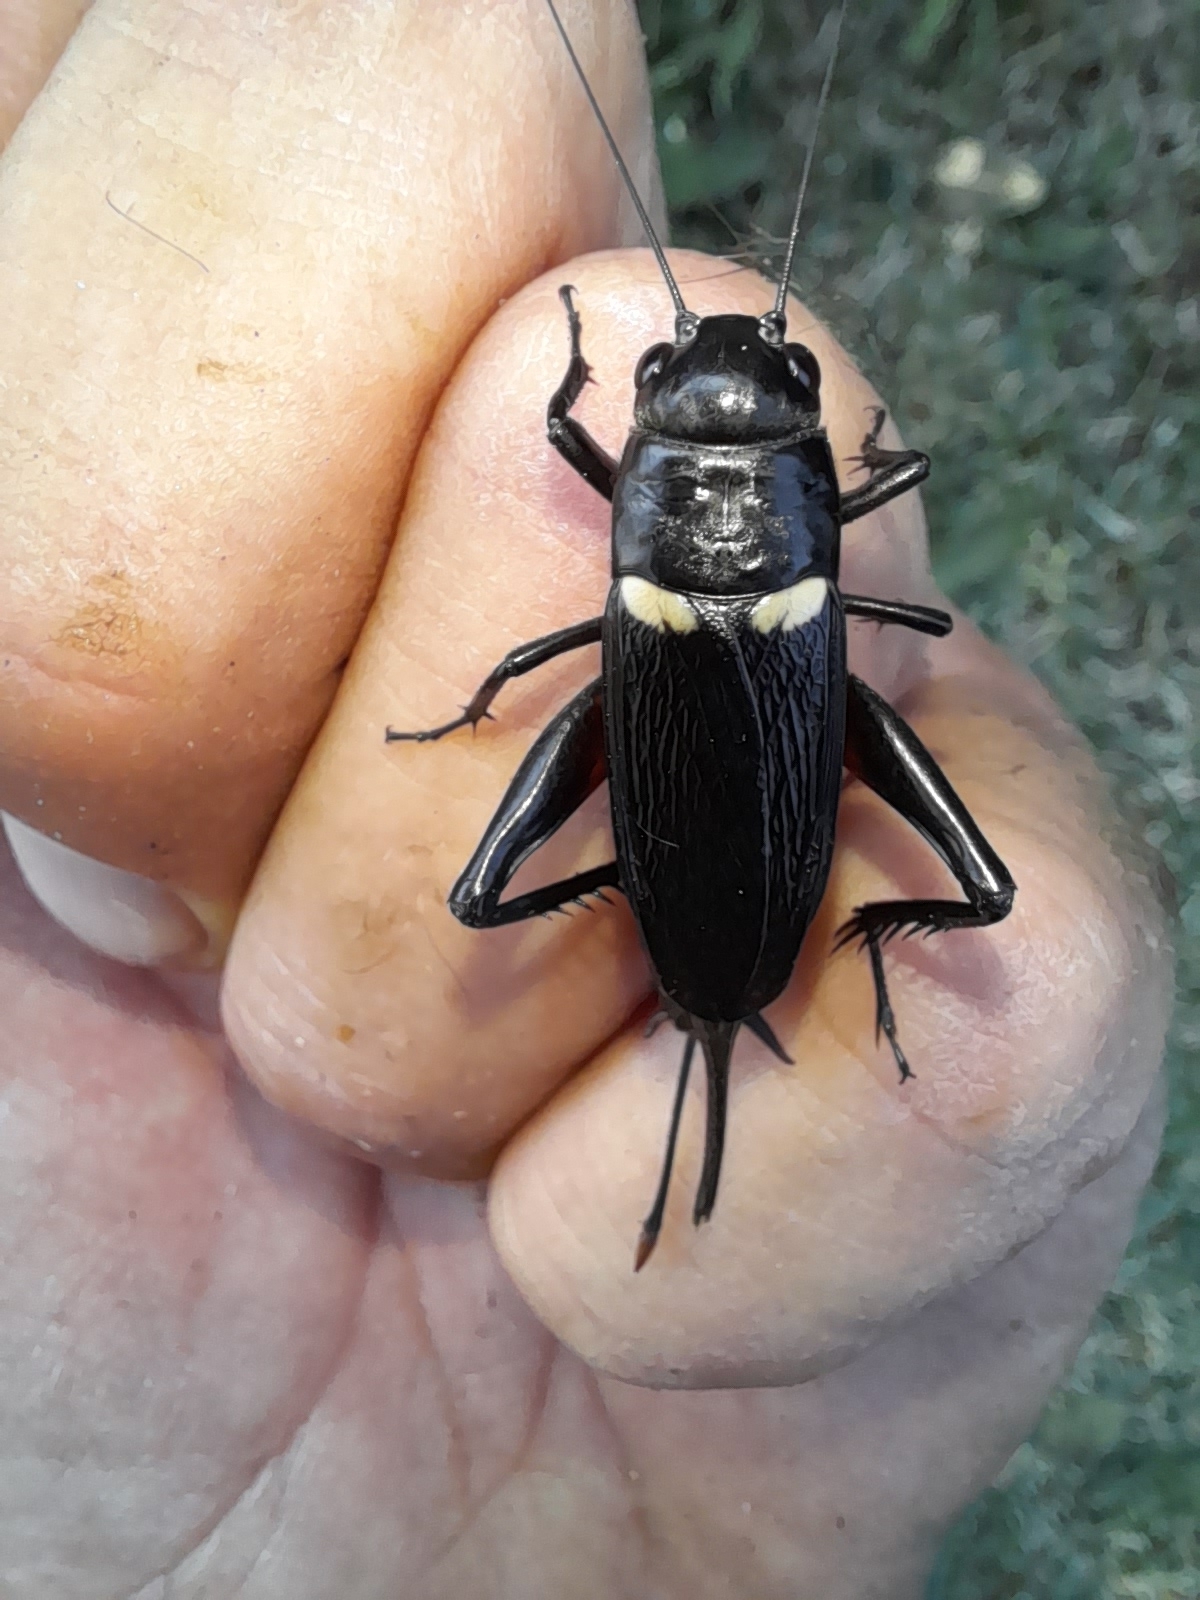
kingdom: Animalia
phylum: Arthropoda
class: Insecta
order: Orthoptera
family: Gryllidae
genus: Gryllus
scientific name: Gryllus bimaculatus
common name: Two-spotted cricket
